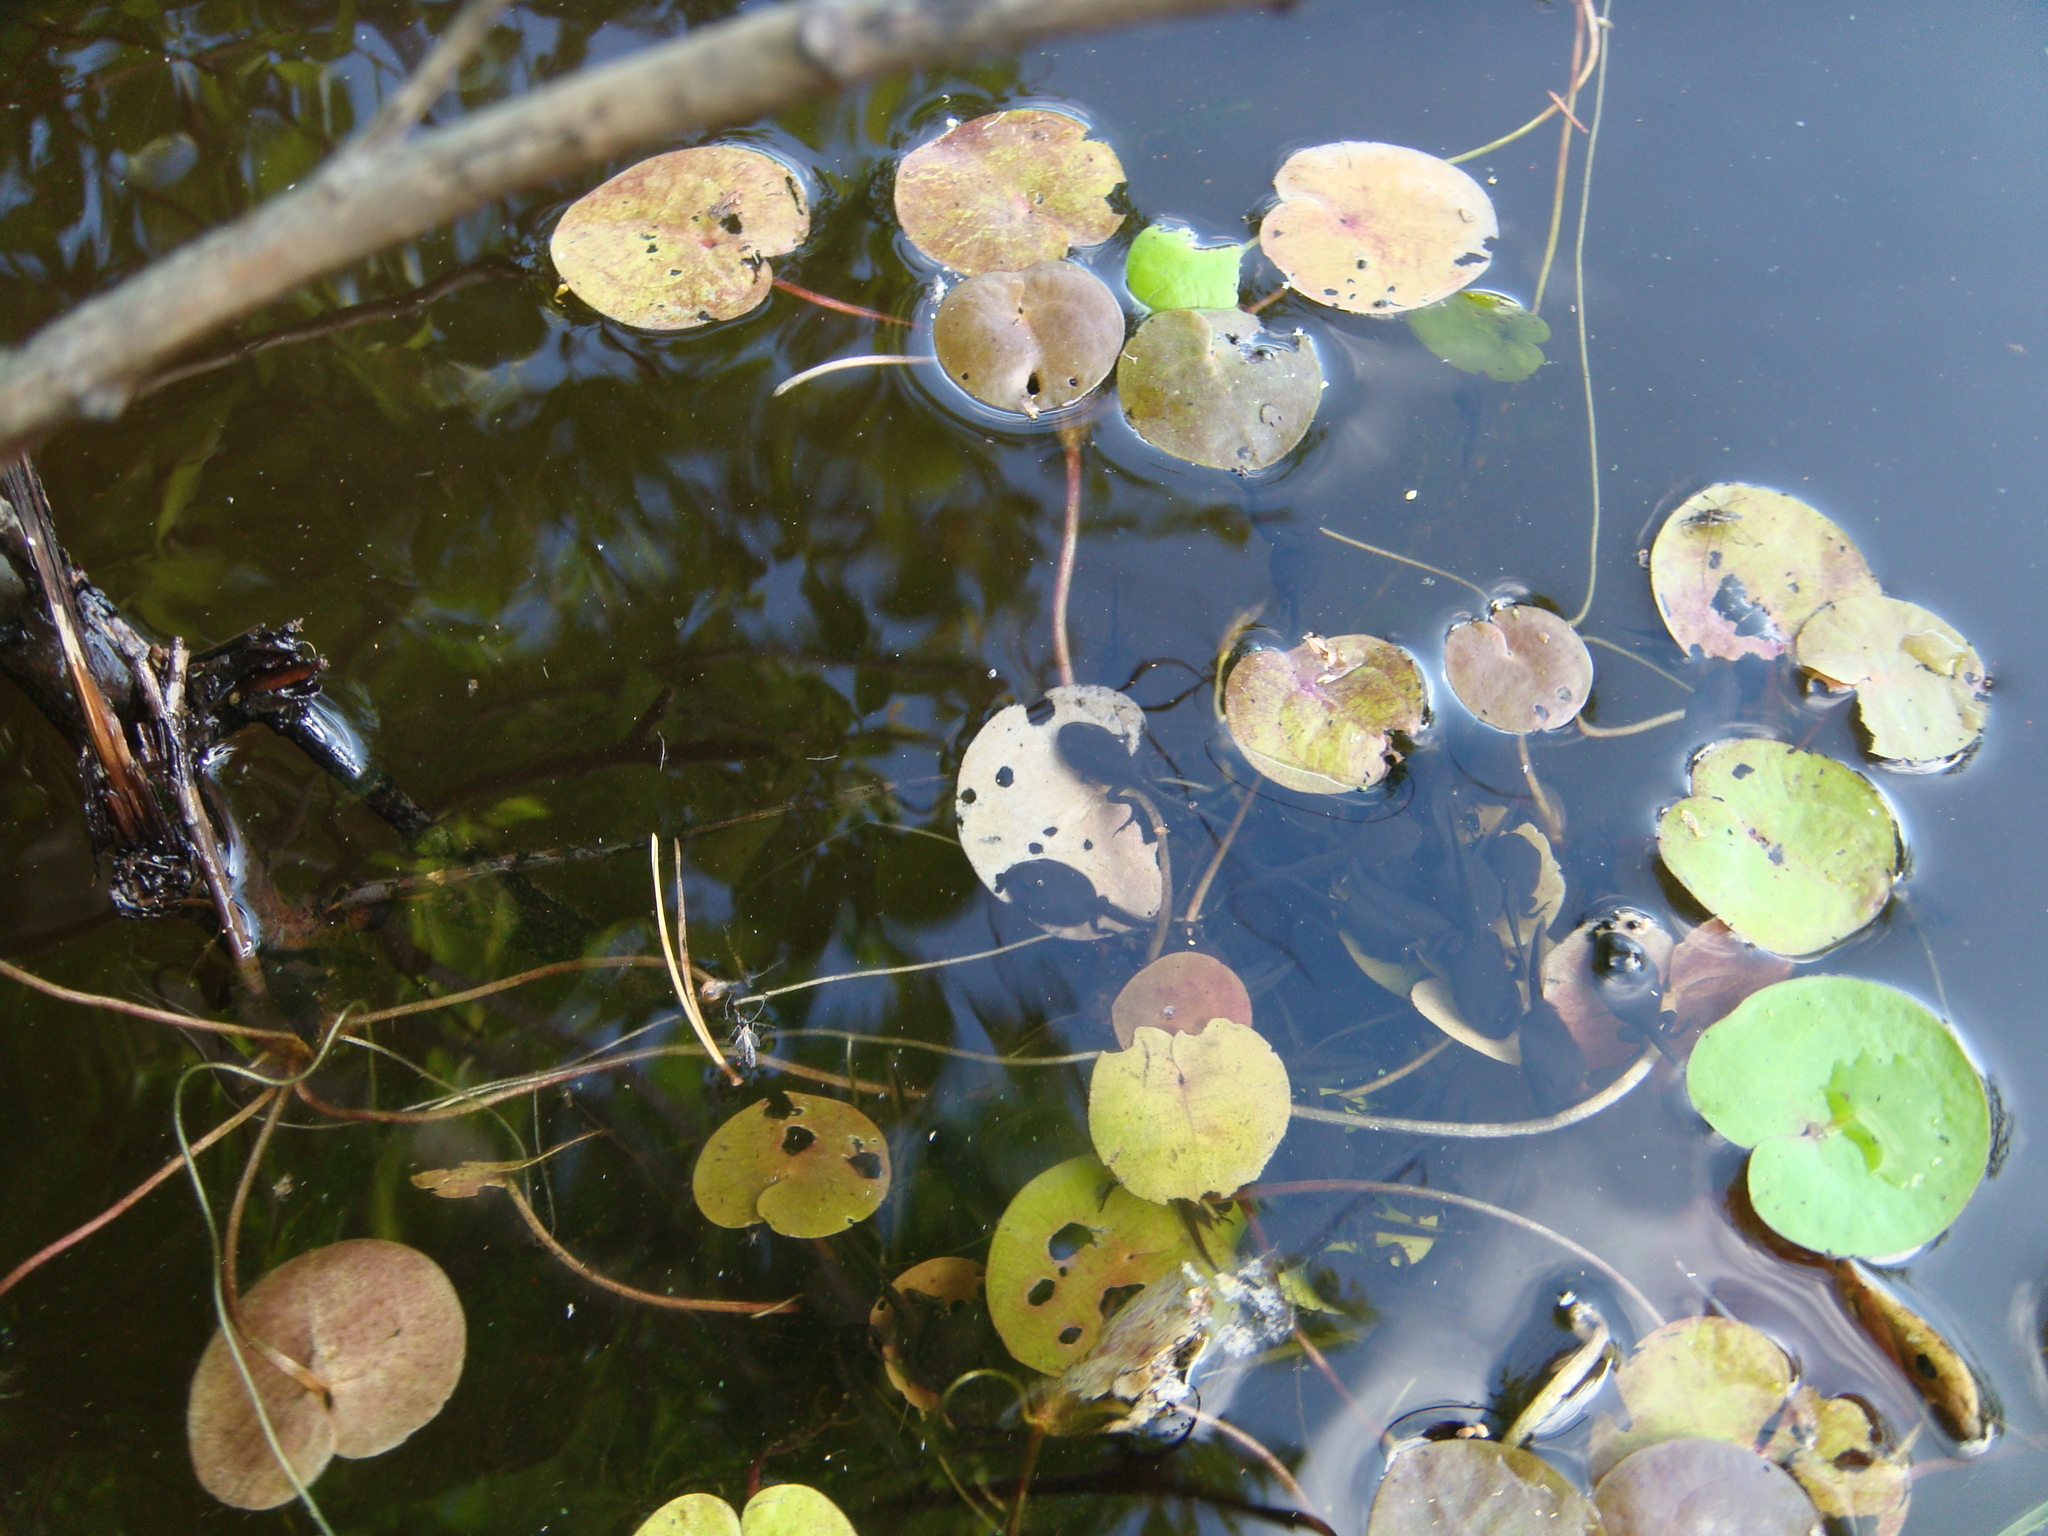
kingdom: Animalia
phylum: Chordata
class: Amphibia
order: Anura
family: Bufonidae
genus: Bufo
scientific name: Bufo bufo
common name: Common toad
